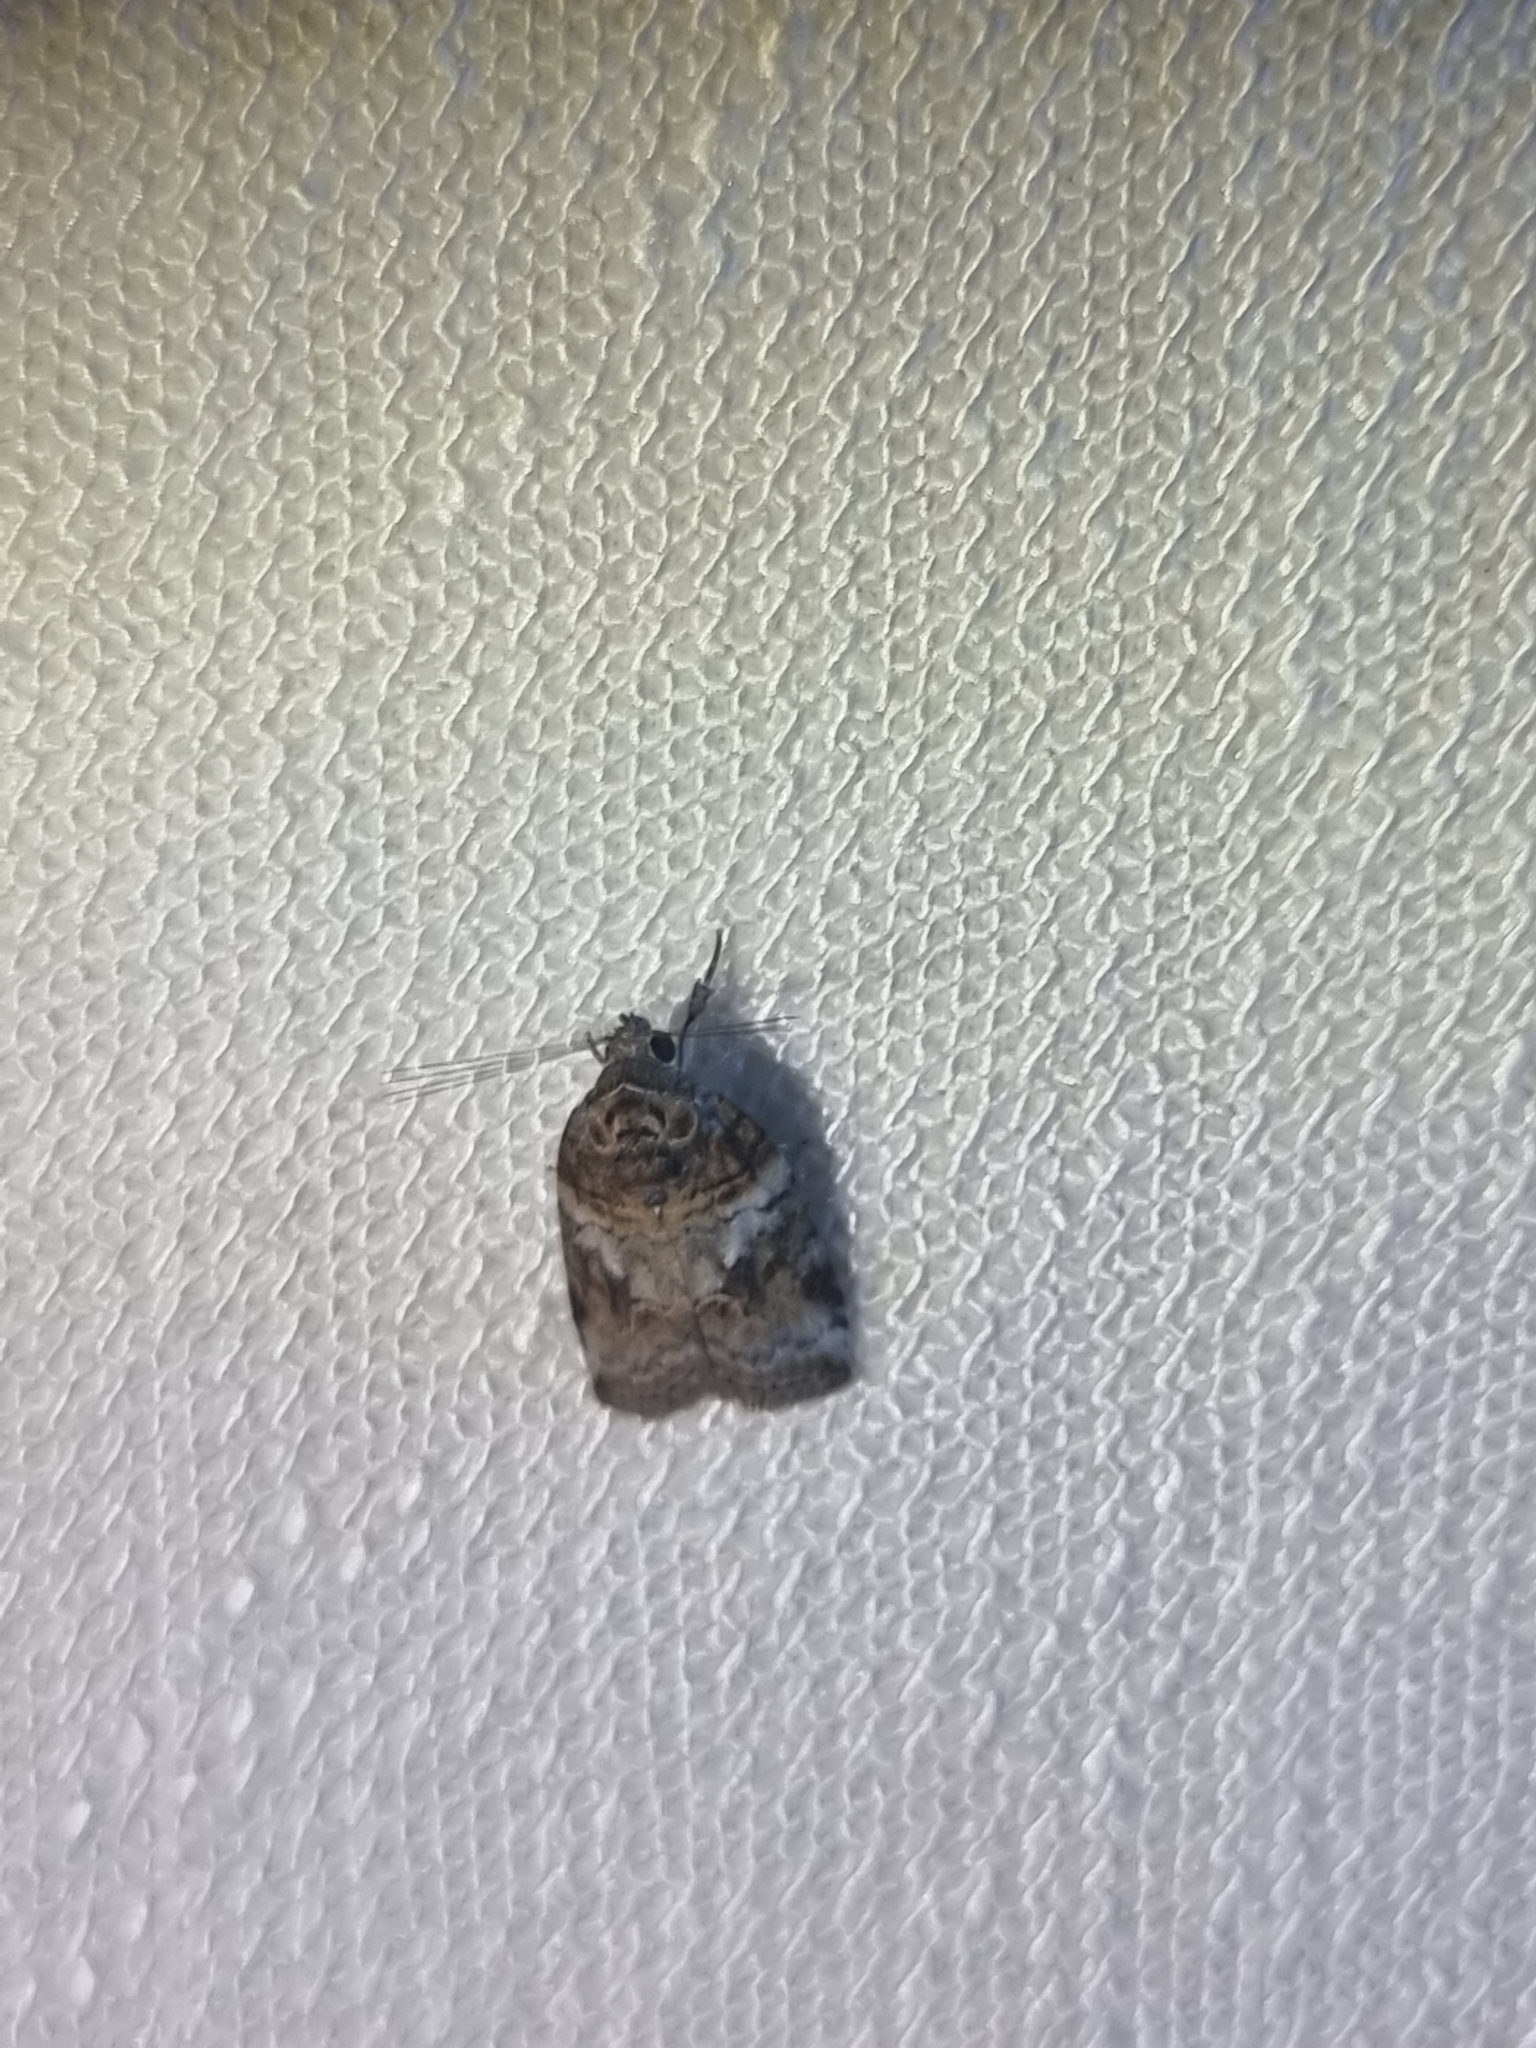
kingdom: Animalia
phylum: Arthropoda
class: Insecta
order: Lepidoptera
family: Nolidae
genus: Garella
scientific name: Garella vallata
